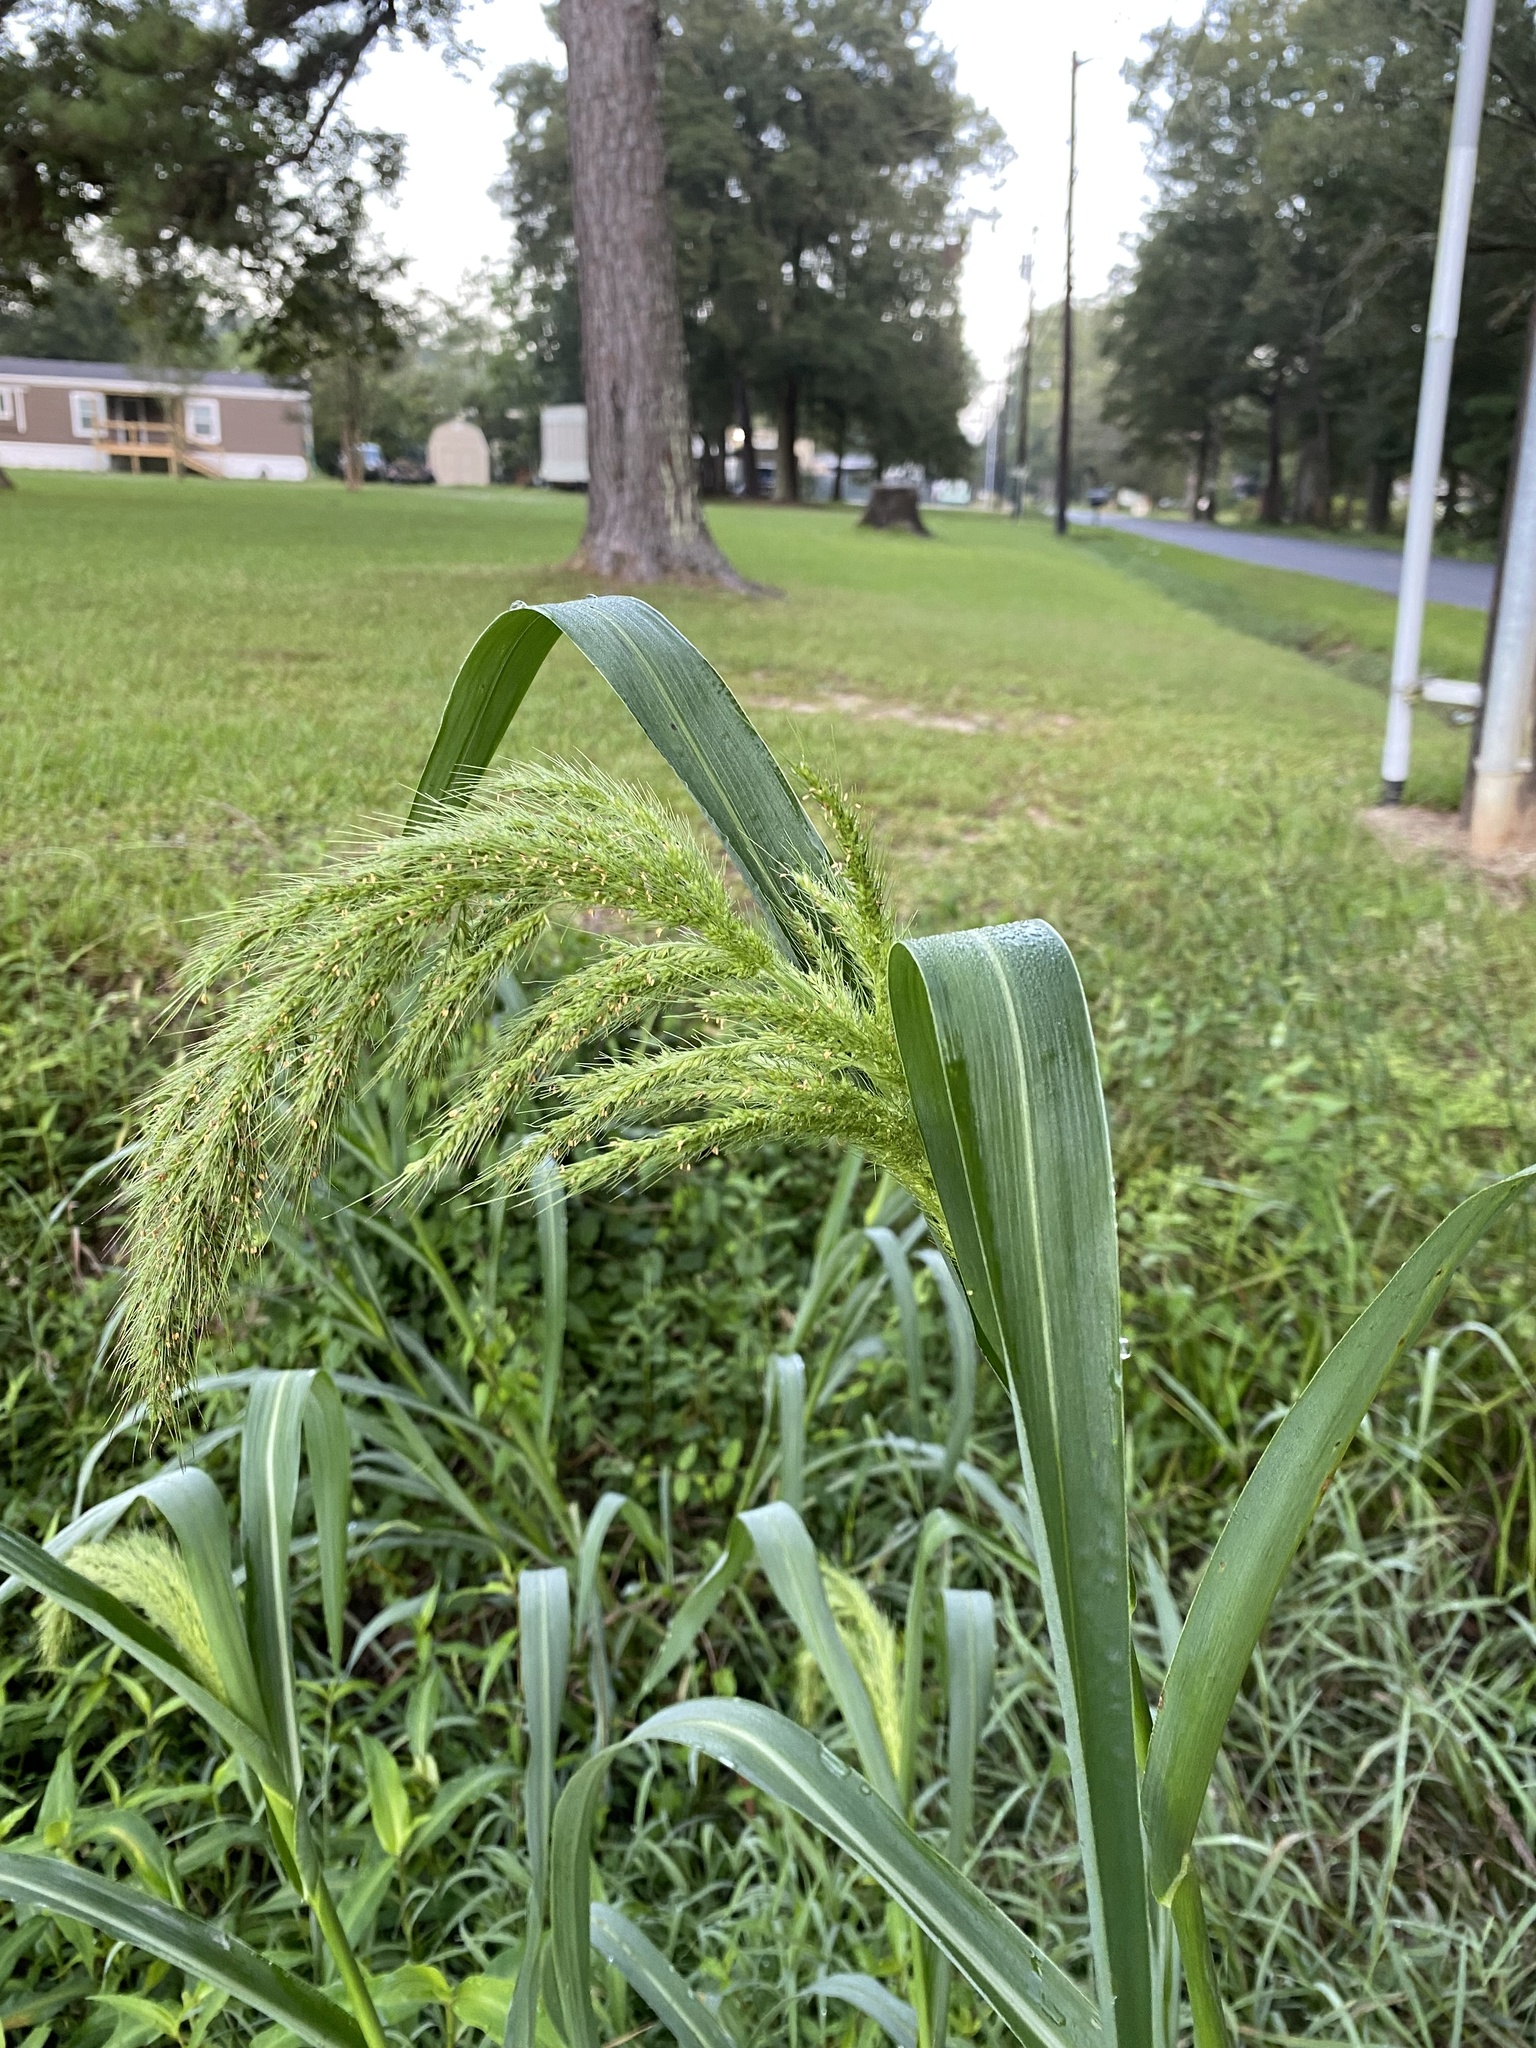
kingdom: Plantae
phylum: Tracheophyta
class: Liliopsida
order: Poales
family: Poaceae
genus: Echinochloa
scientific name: Echinochloa walteri
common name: Coast barnyard grass
